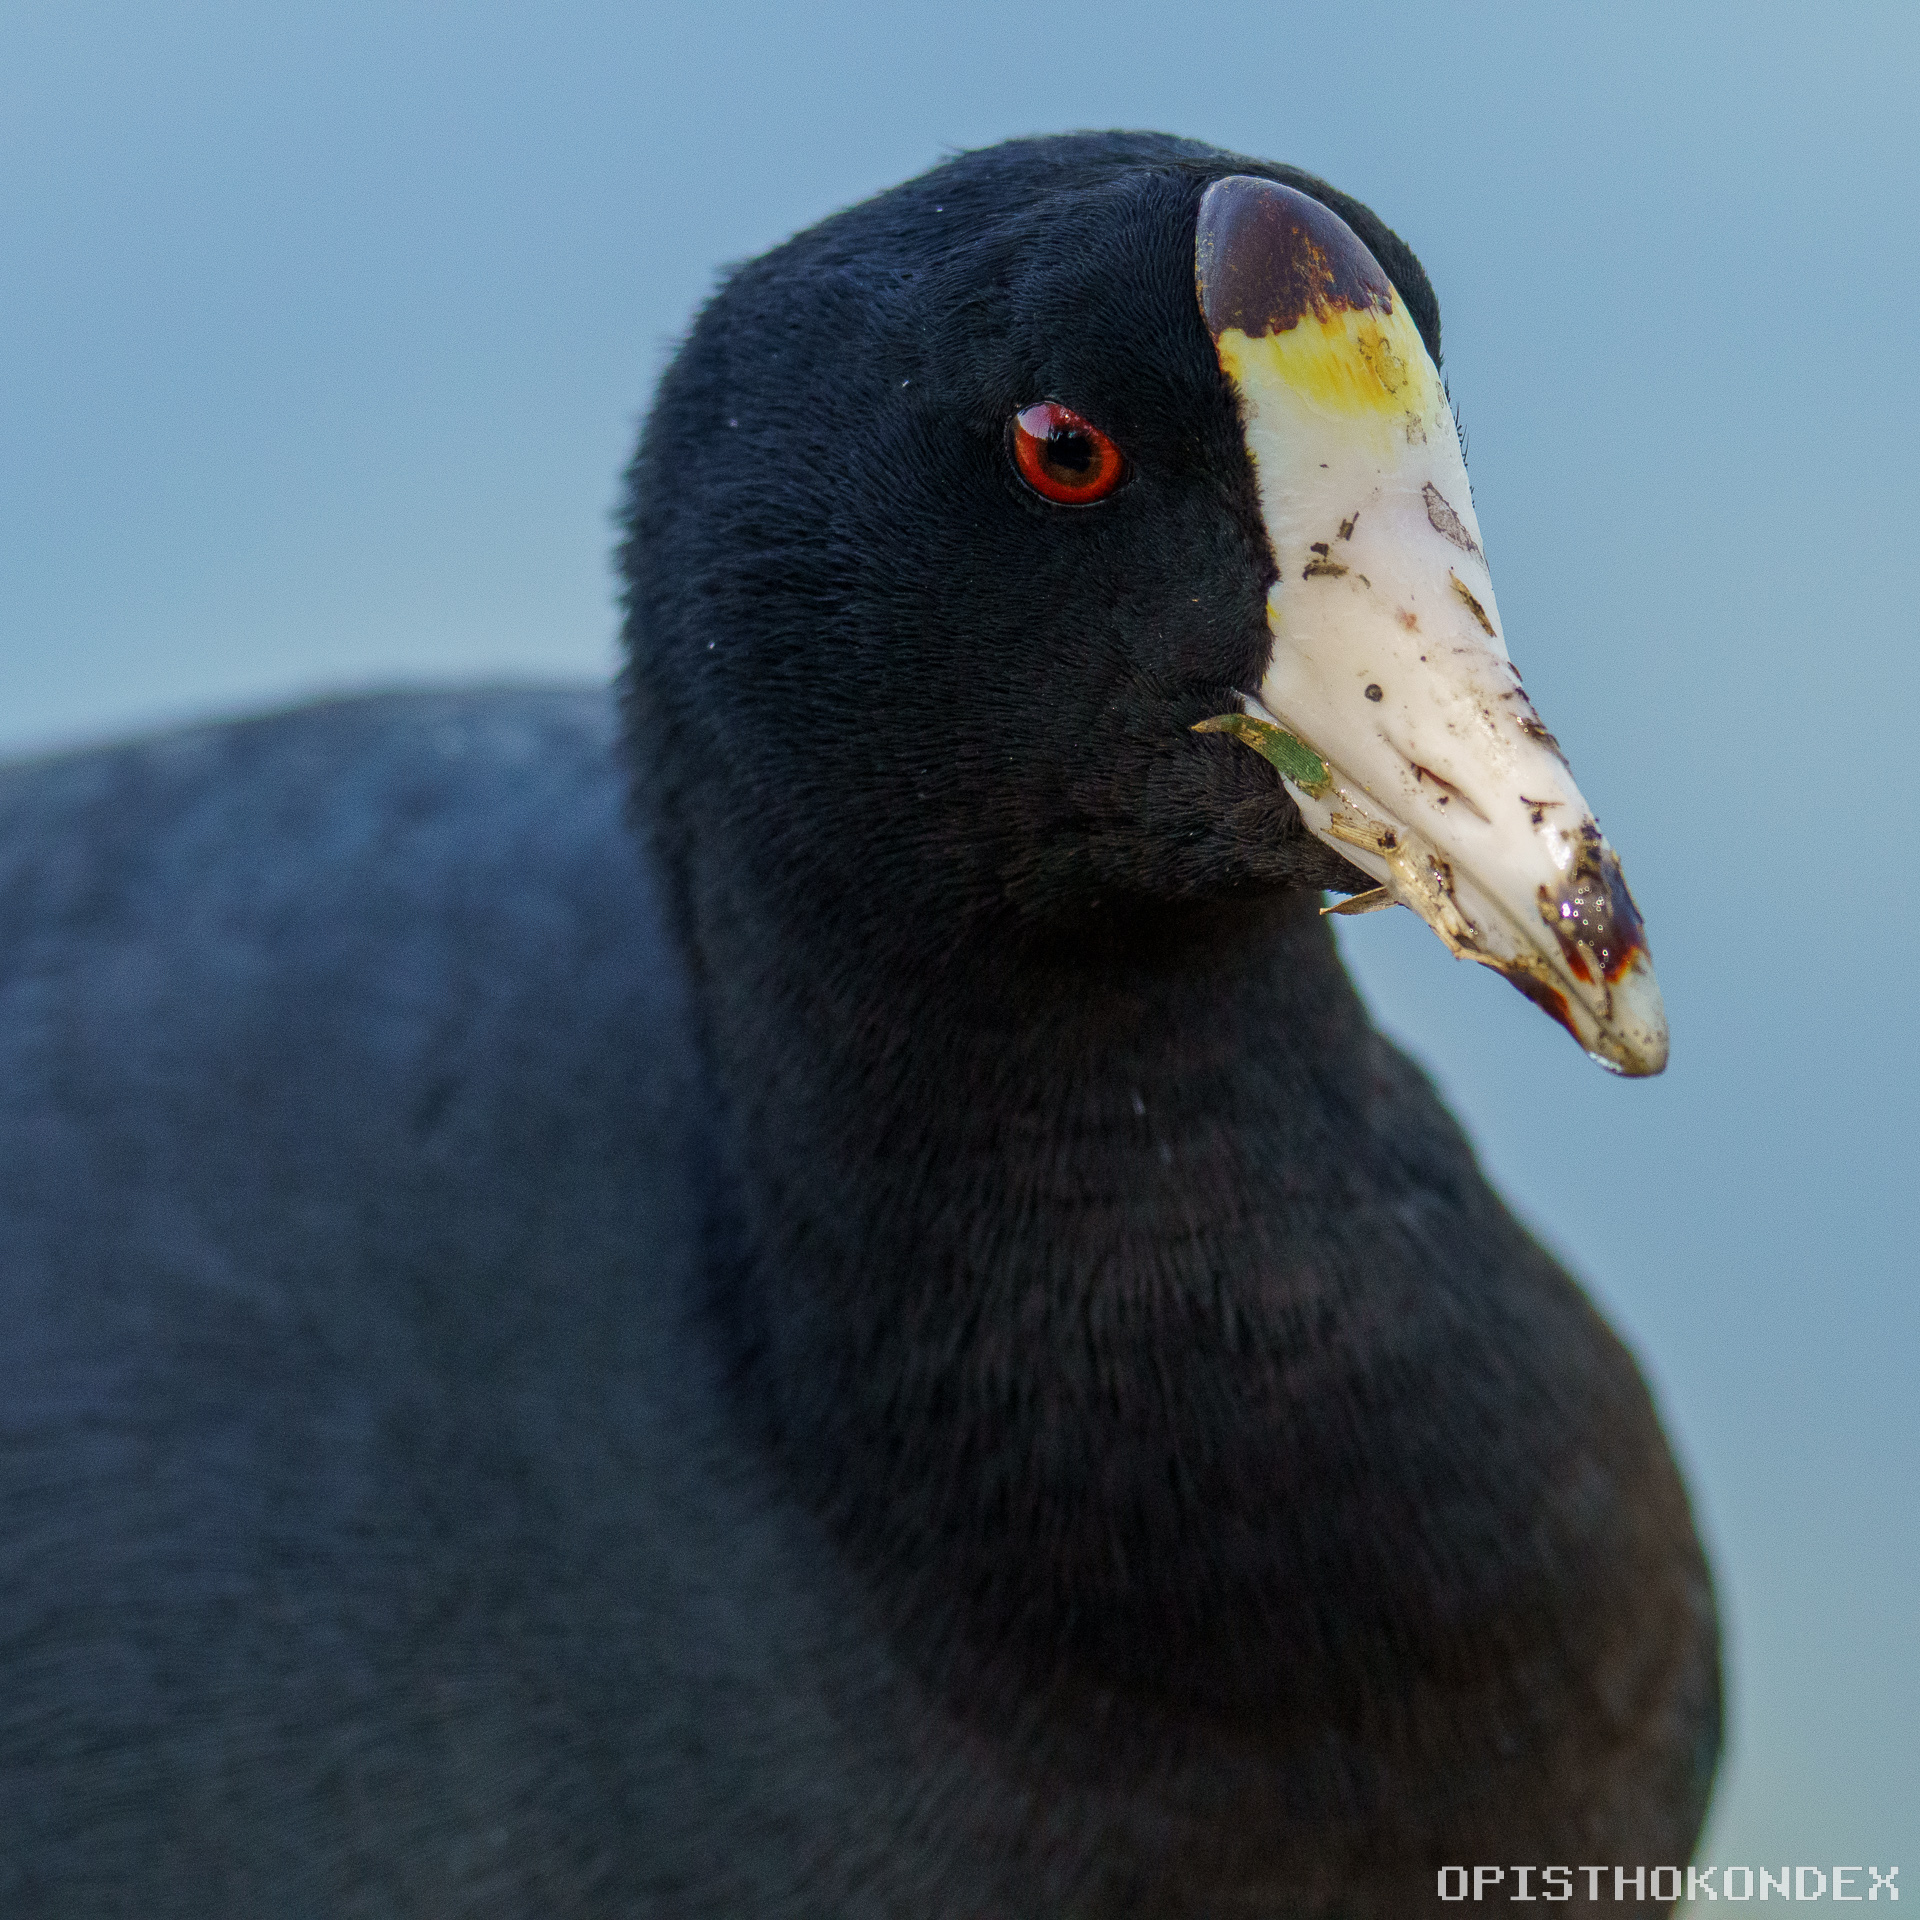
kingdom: Animalia
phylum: Chordata
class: Aves
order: Gruiformes
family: Rallidae
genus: Fulica
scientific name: Fulica americana
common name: American coot
